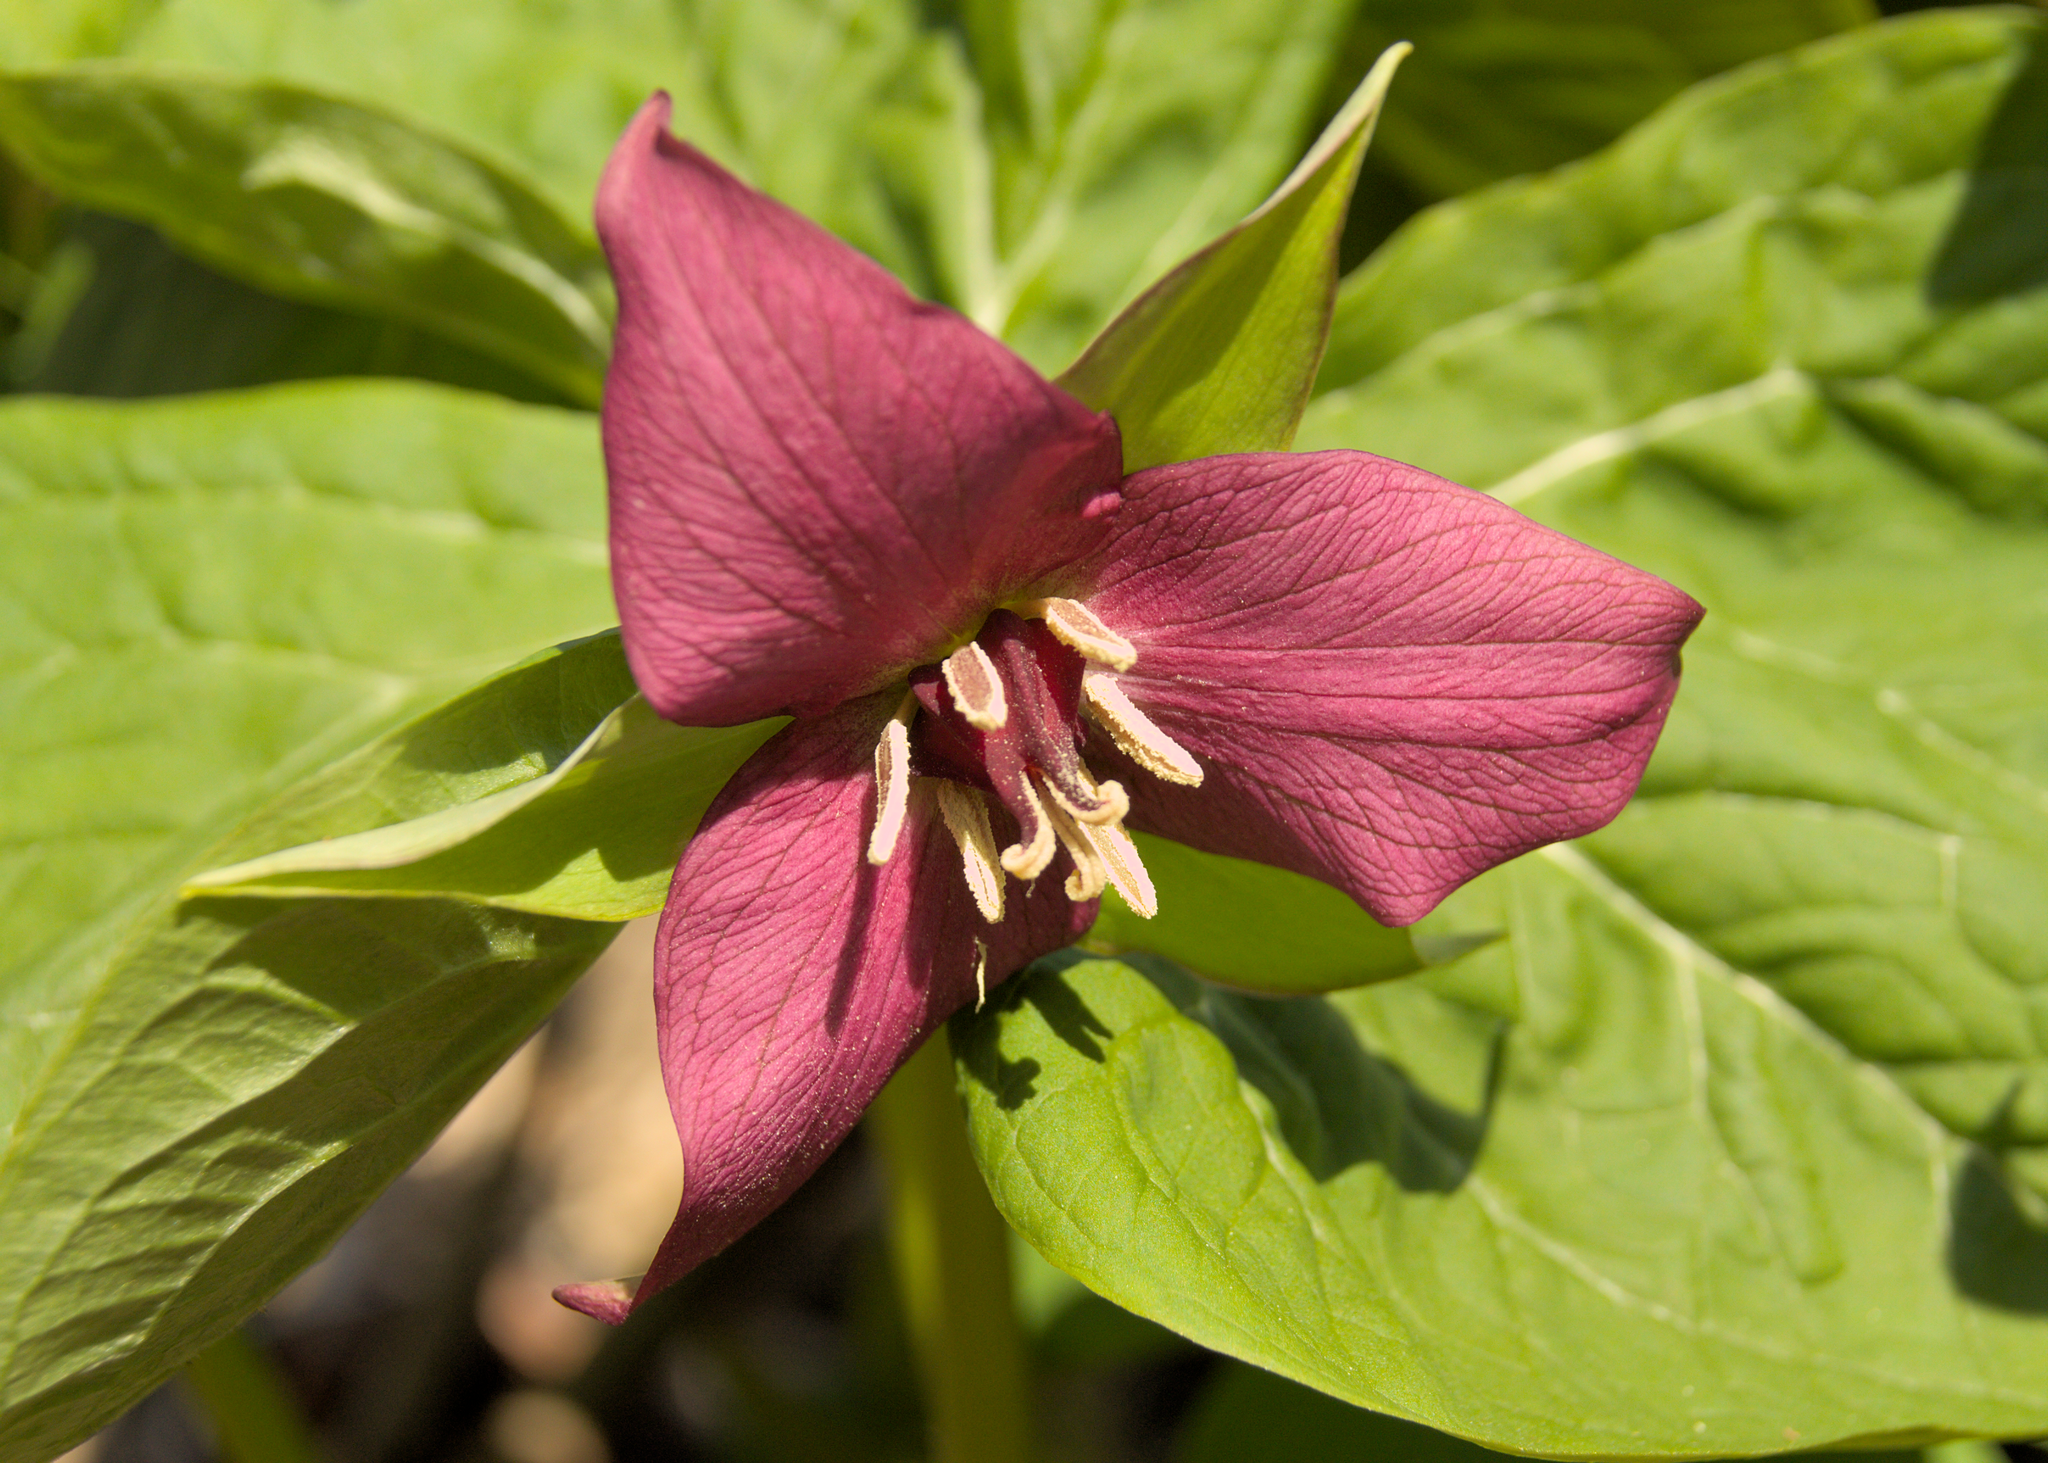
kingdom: Plantae
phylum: Tracheophyta
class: Liliopsida
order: Liliales
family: Melanthiaceae
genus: Trillium
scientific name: Trillium erectum
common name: Purple trillium
